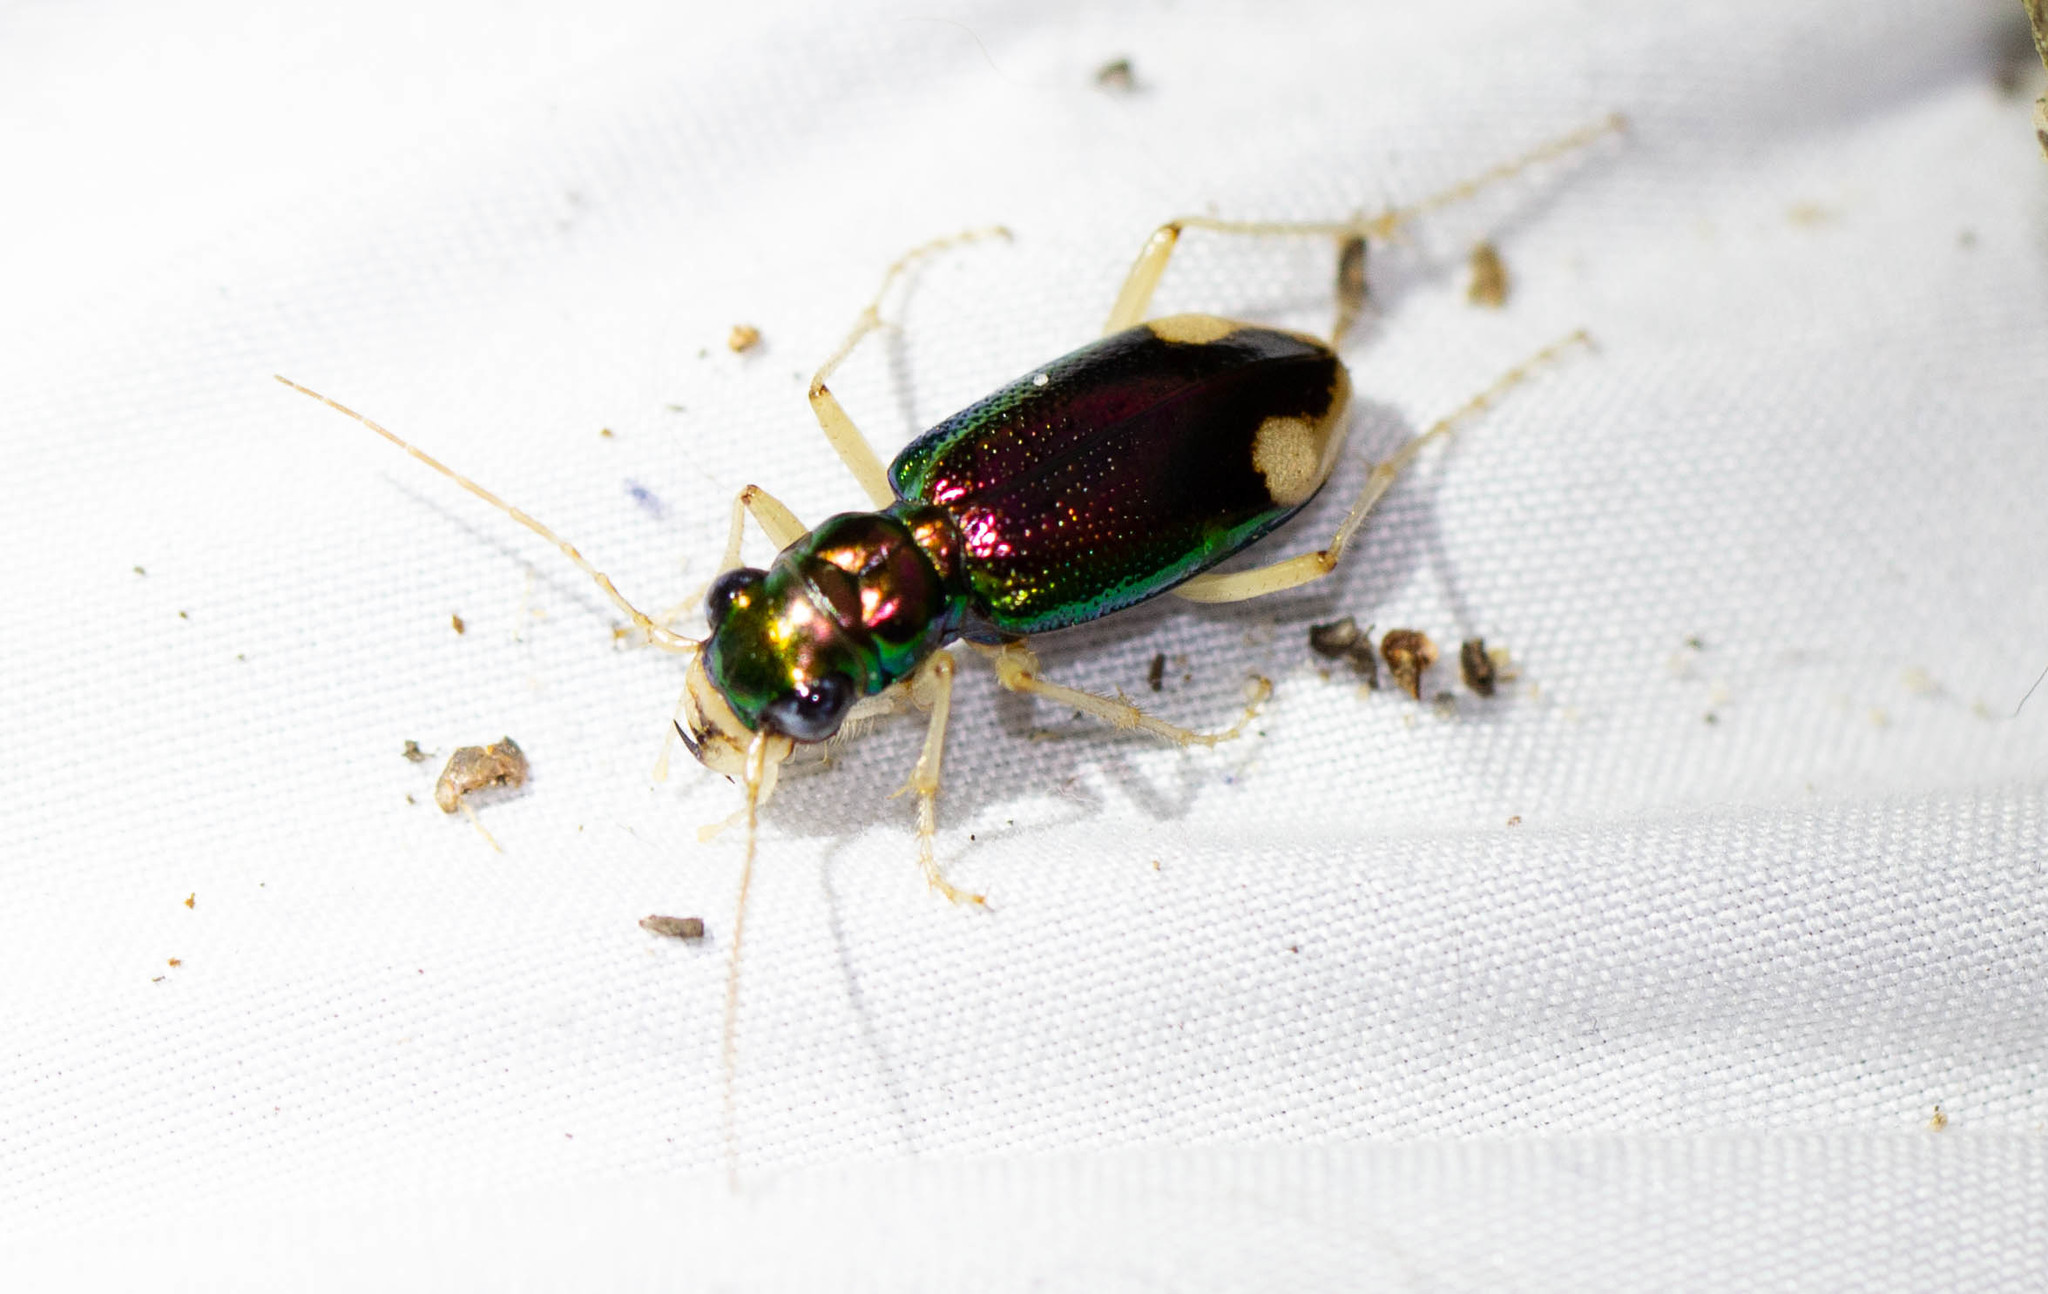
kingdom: Animalia
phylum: Arthropoda
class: Insecta
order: Coleoptera
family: Carabidae
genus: Tetracha
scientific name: Tetracha carolina
